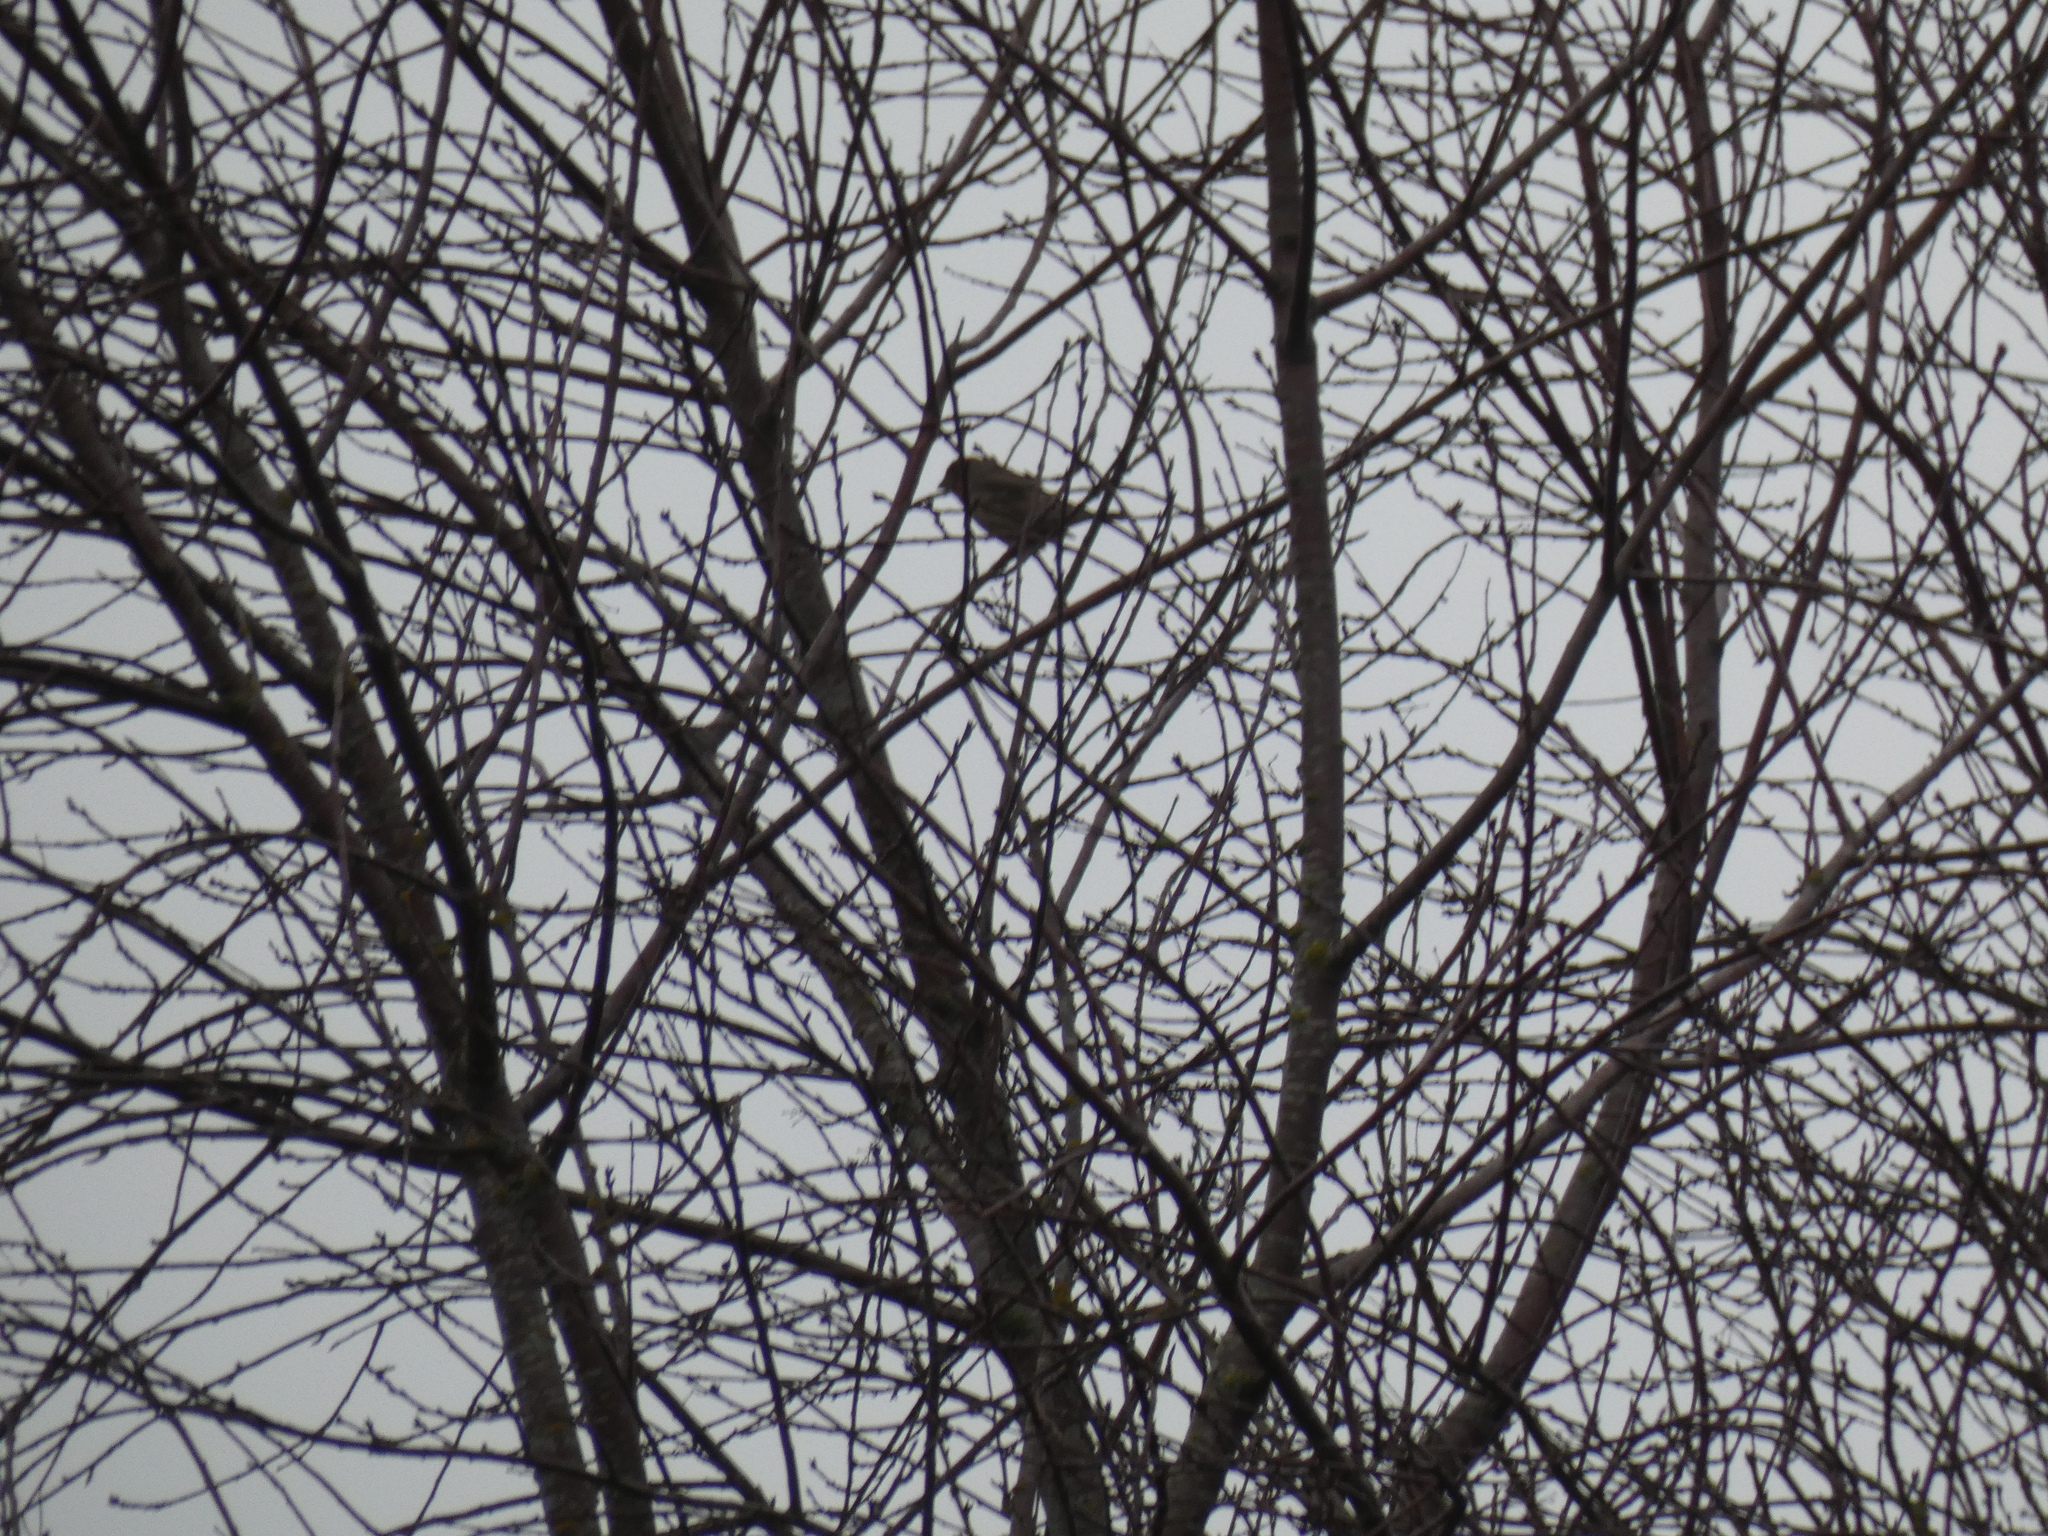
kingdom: Animalia
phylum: Chordata
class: Aves
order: Passeriformes
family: Fringillidae
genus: Haemorhous
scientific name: Haemorhous mexicanus
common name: House finch
